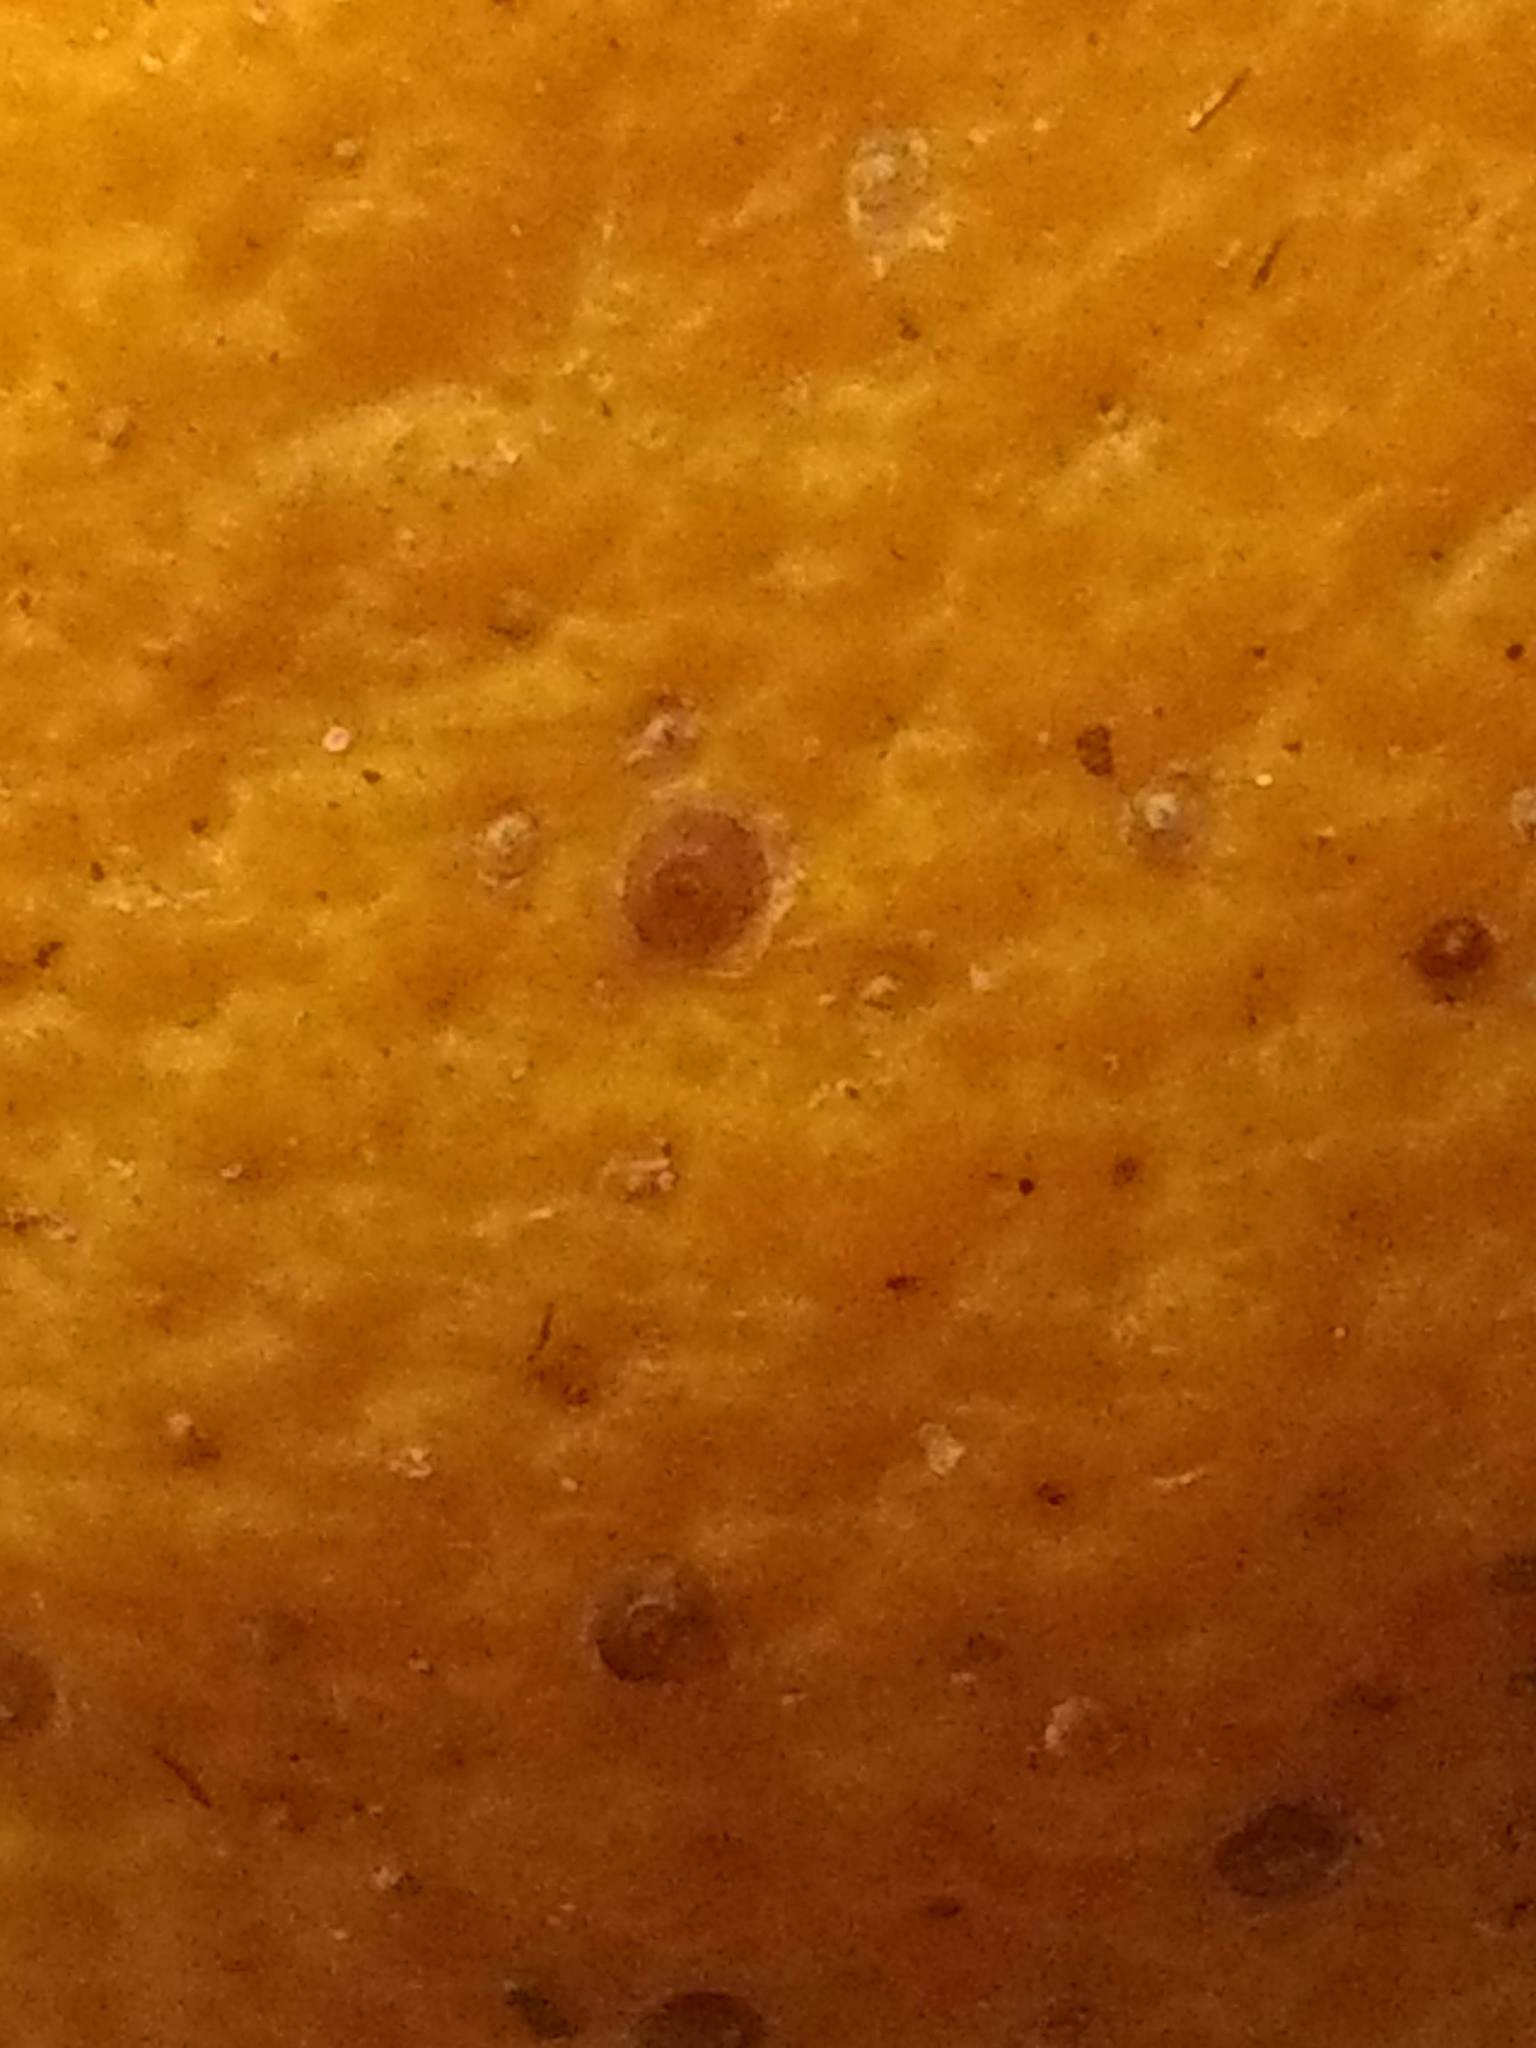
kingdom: Animalia
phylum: Arthropoda
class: Insecta
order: Hemiptera
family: Diaspididae
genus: Aonidiella
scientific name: Aonidiella aurantii
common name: California red scale
